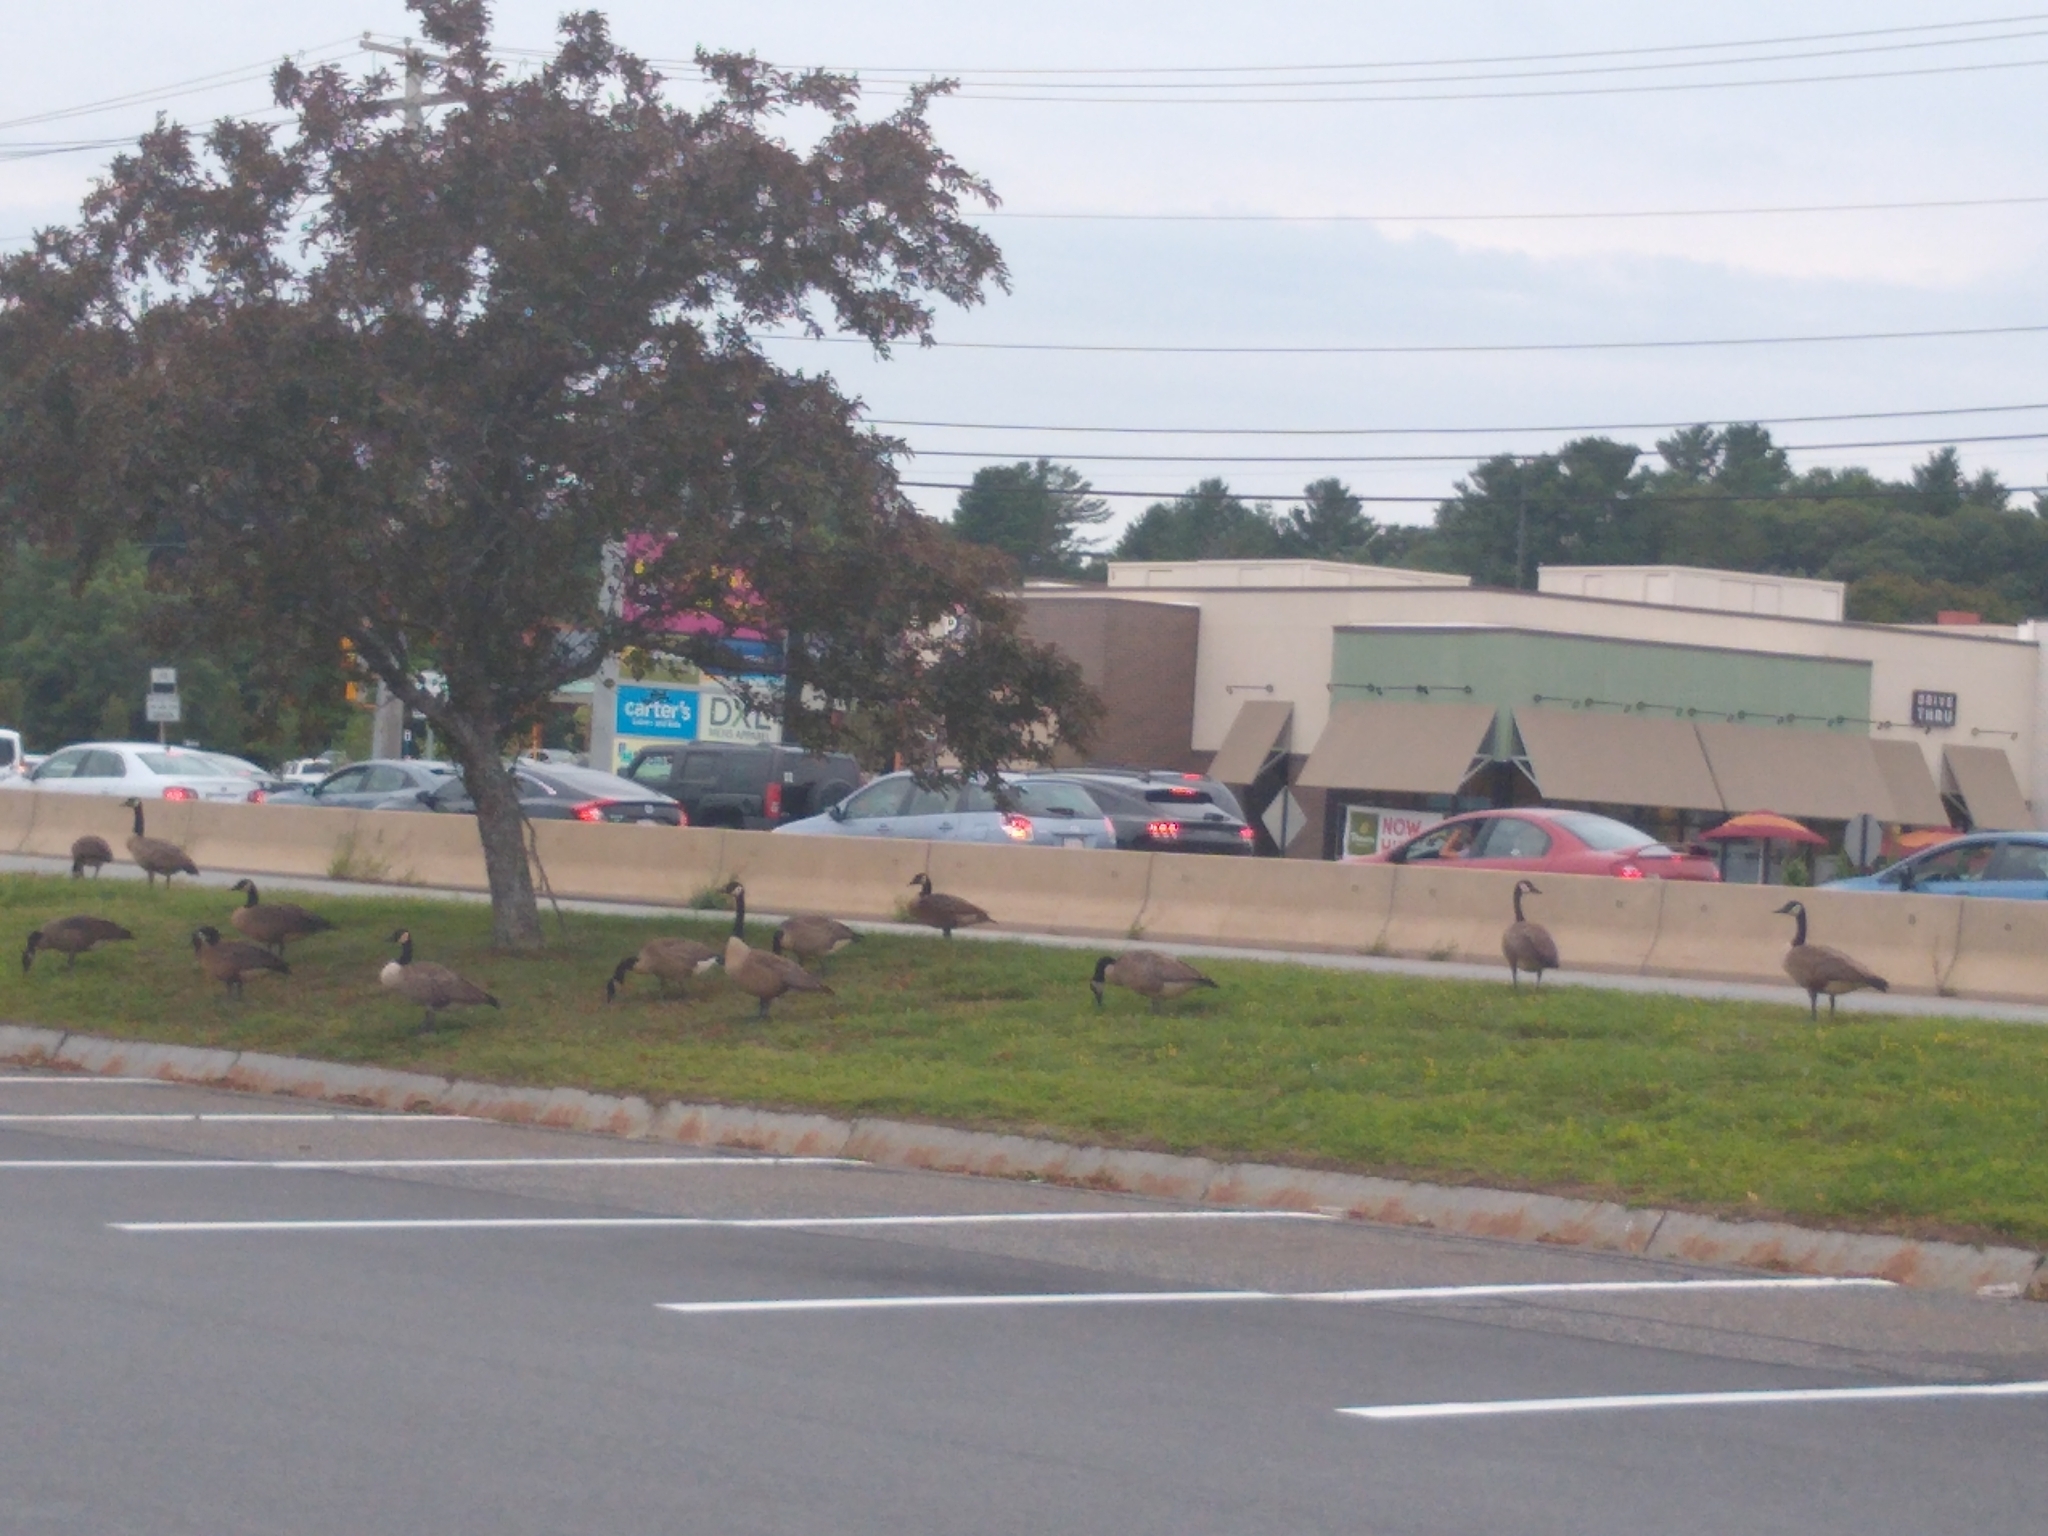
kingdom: Animalia
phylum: Chordata
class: Aves
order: Anseriformes
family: Anatidae
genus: Branta
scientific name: Branta canadensis
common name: Canada goose
